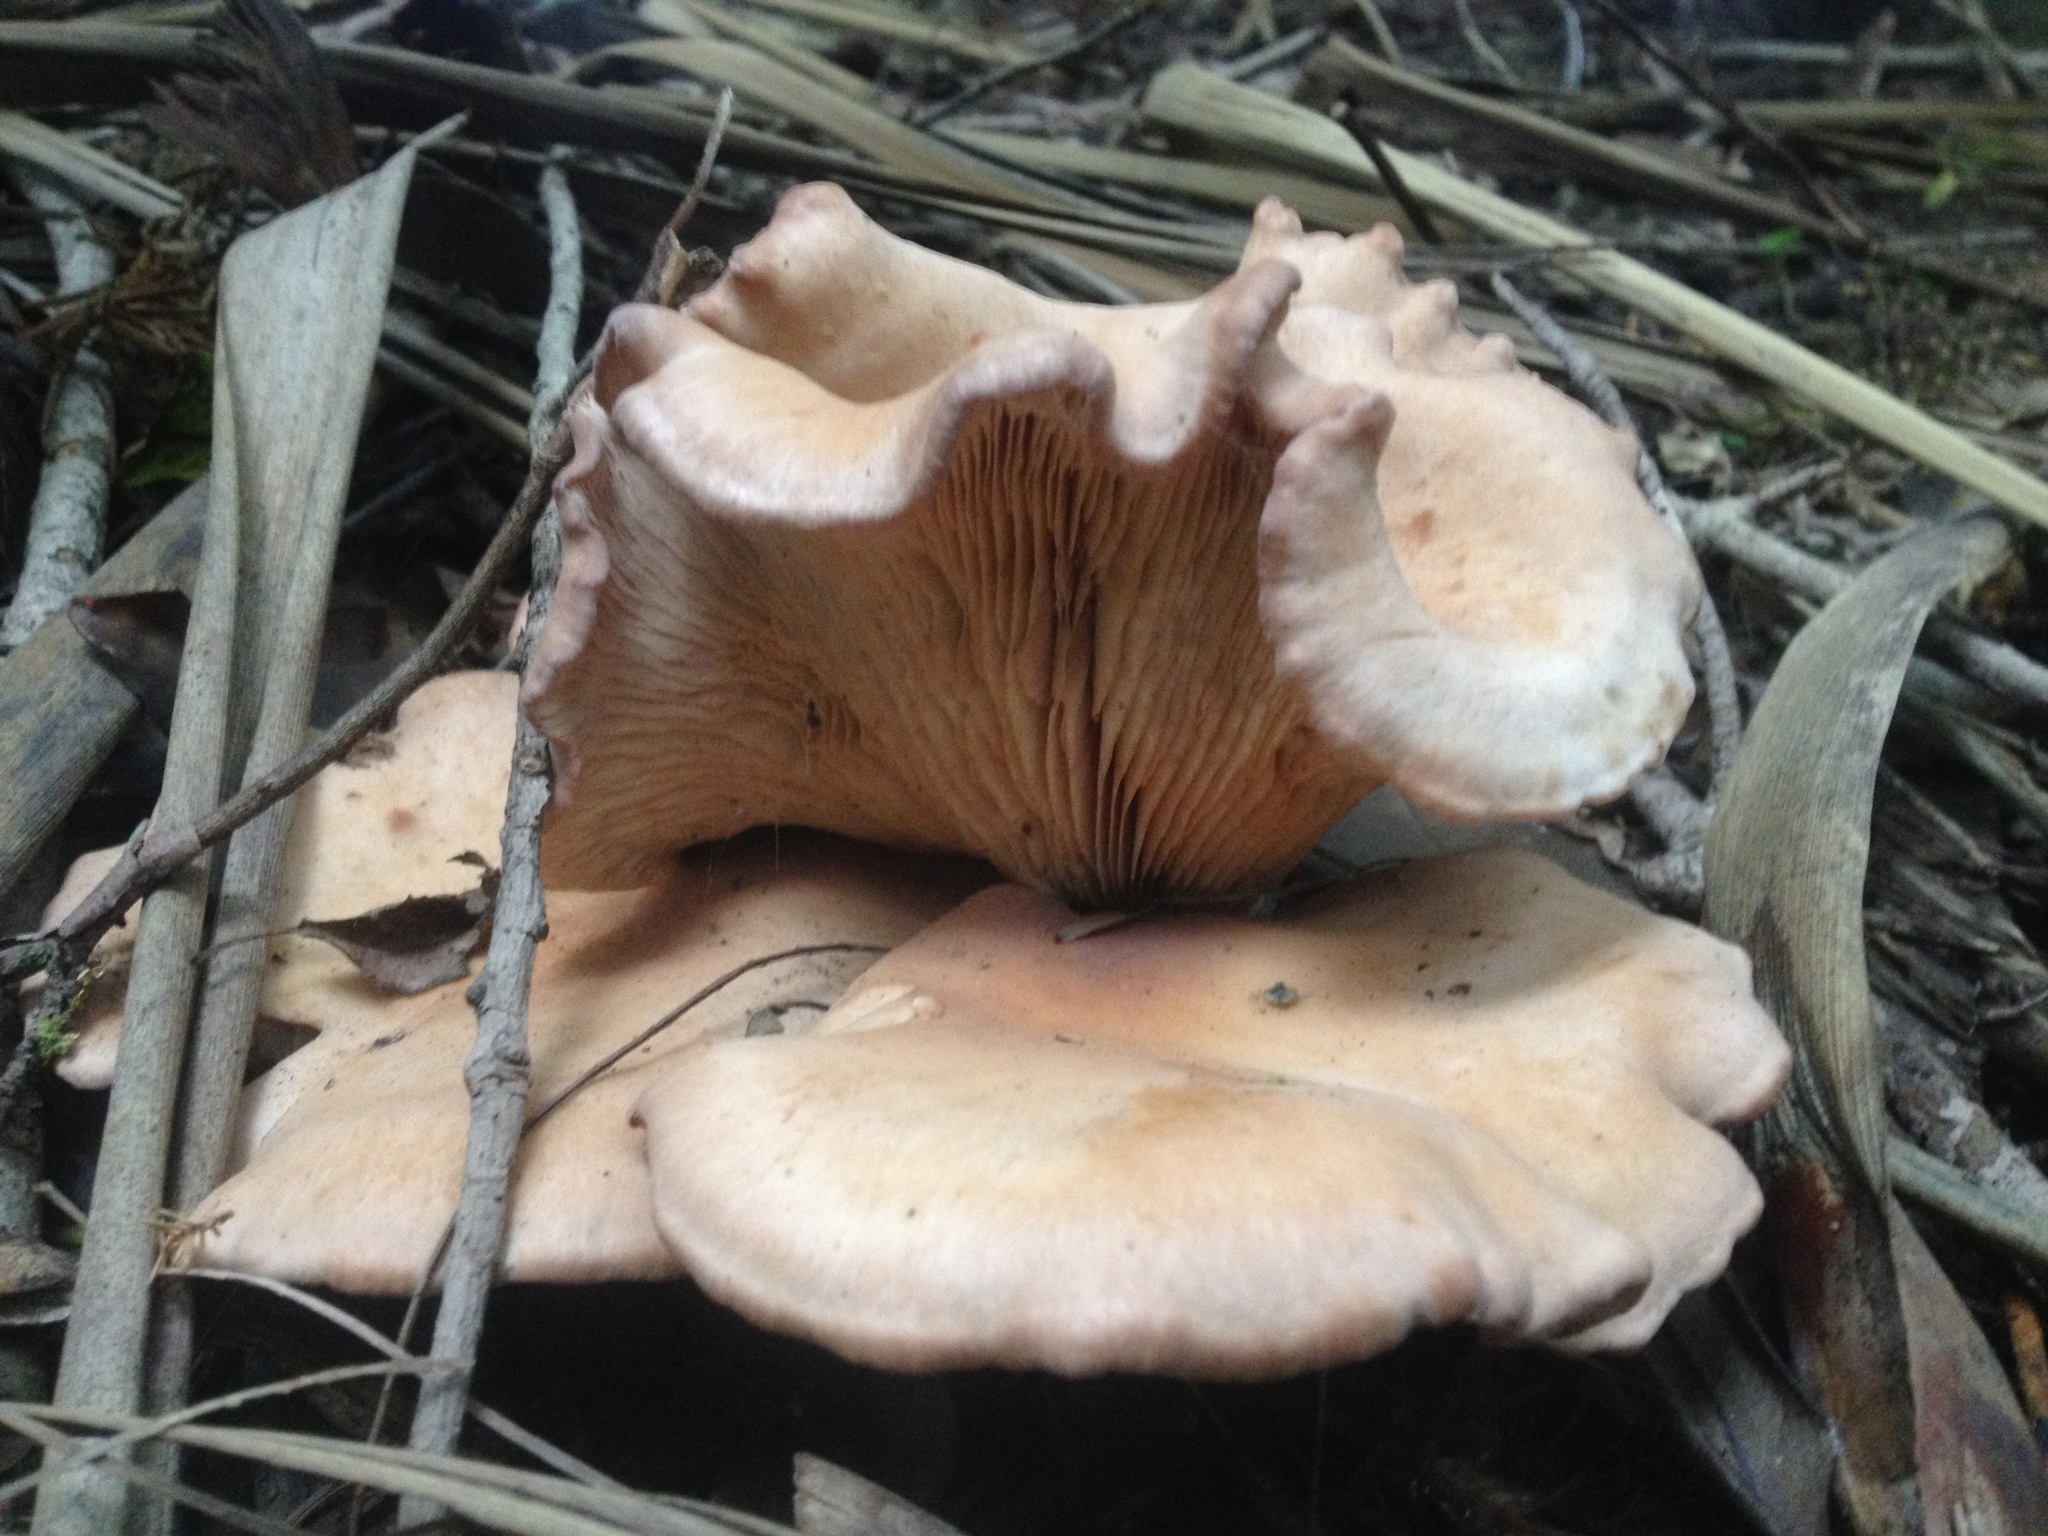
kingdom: Fungi
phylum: Basidiomycota
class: Agaricomycetes
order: Agaricales
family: Entolomataceae
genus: Clitopilus
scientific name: Clitopilus piperitus
